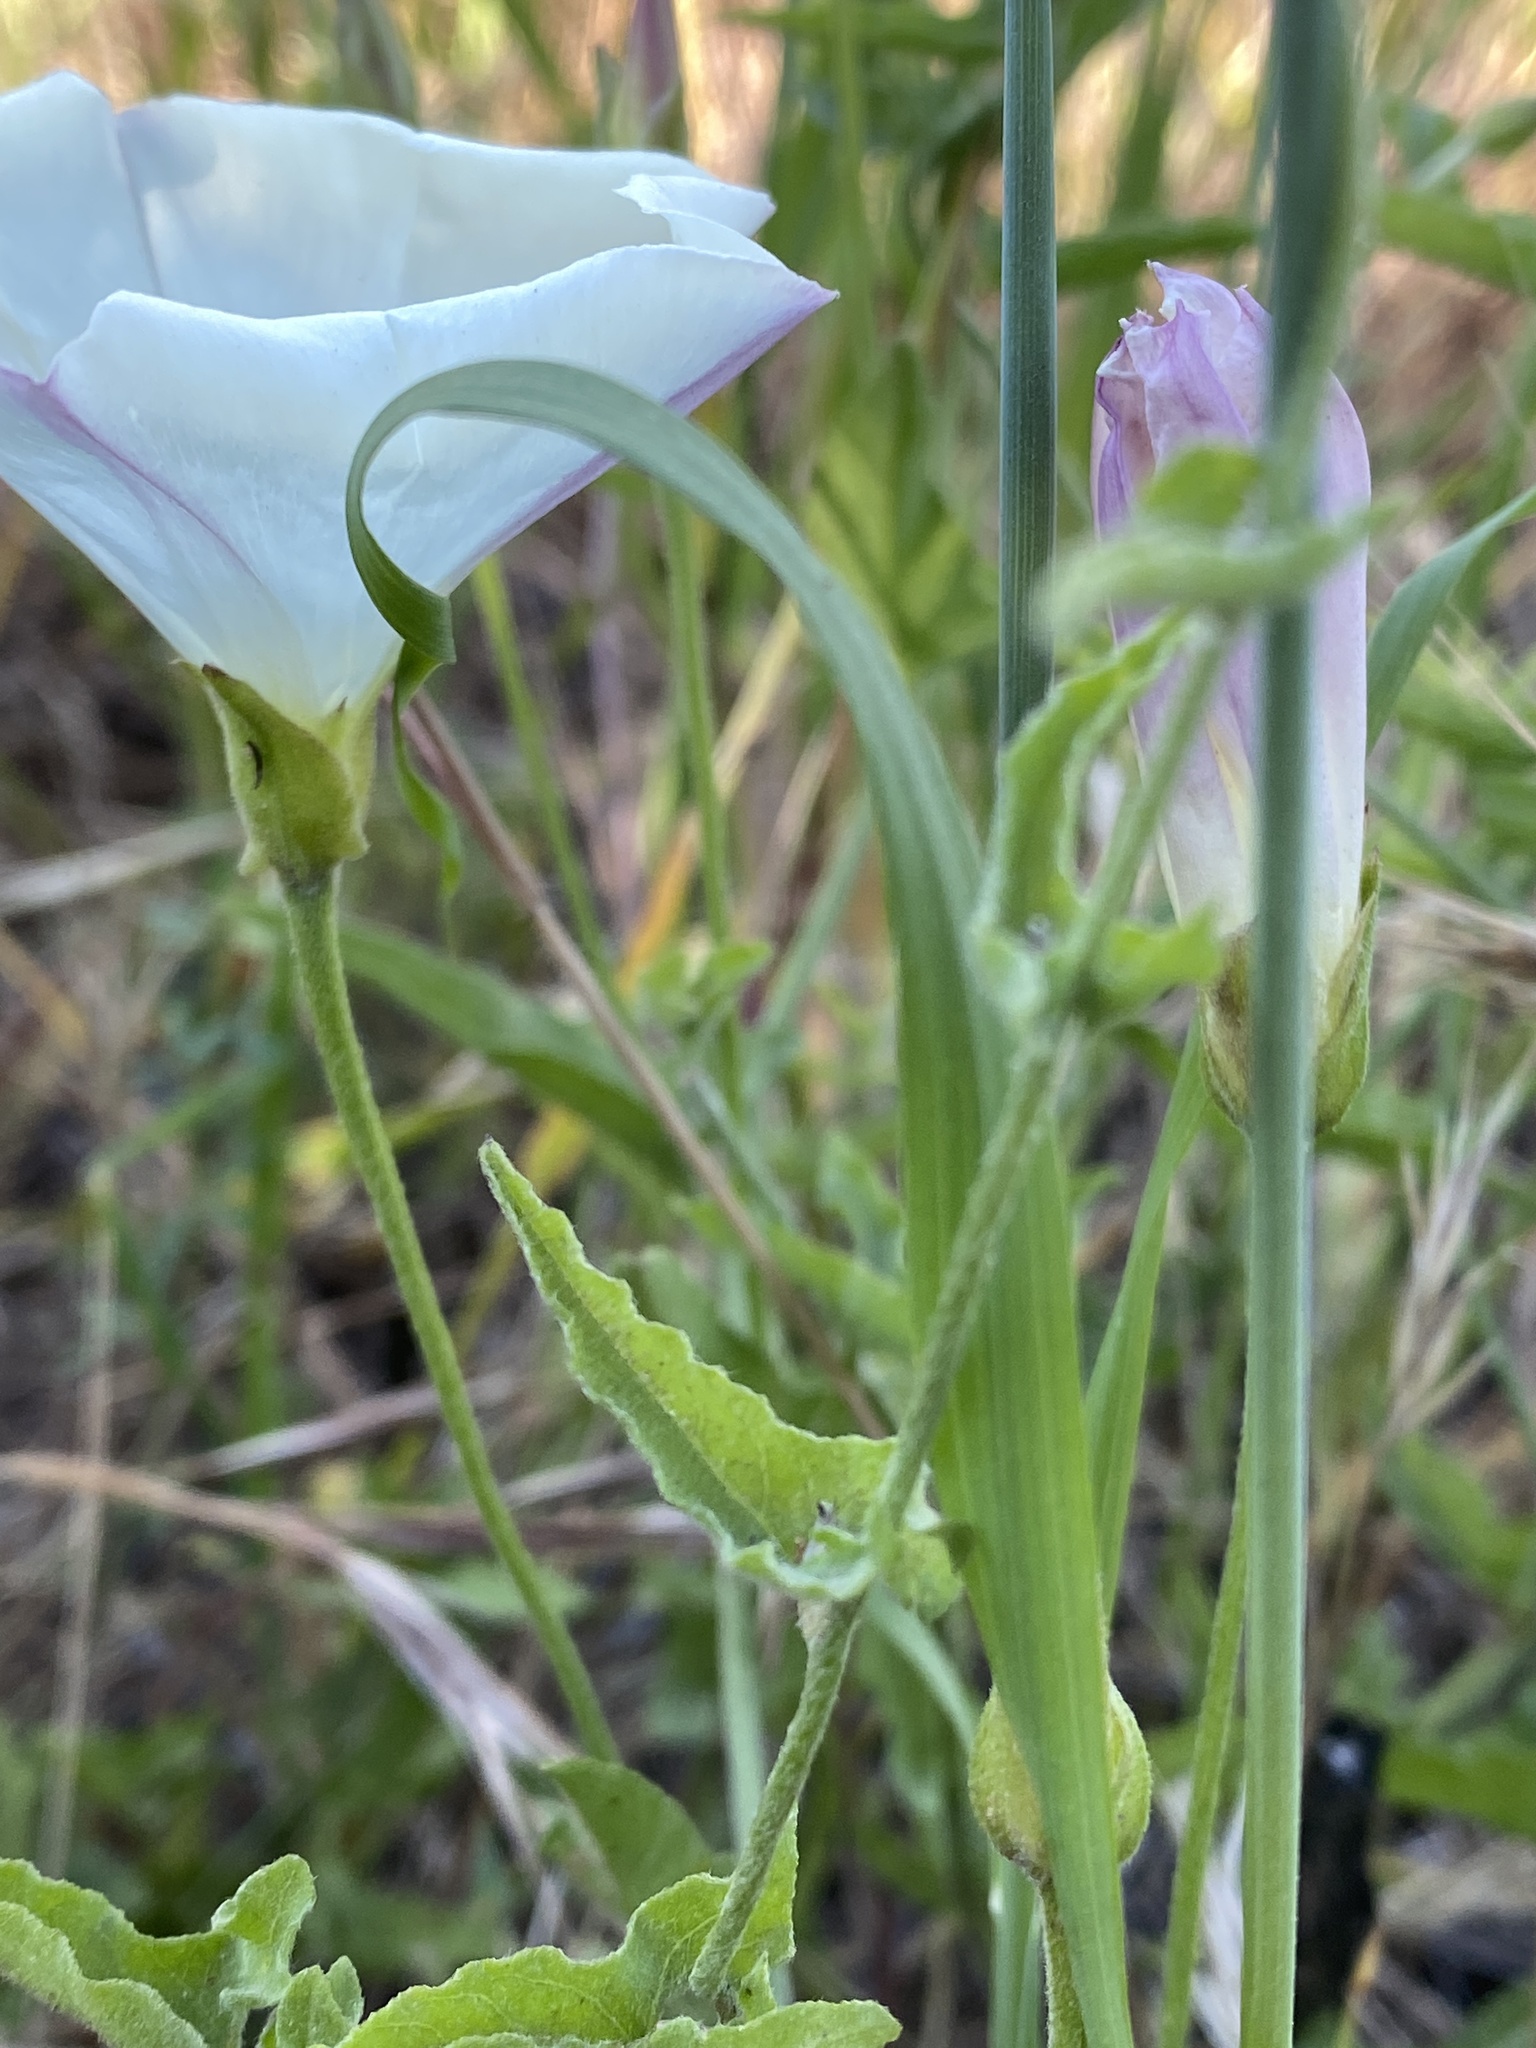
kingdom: Plantae
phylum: Tracheophyta
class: Magnoliopsida
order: Solanales
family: Convolvulaceae
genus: Calystegia
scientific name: Calystegia macrostegia
